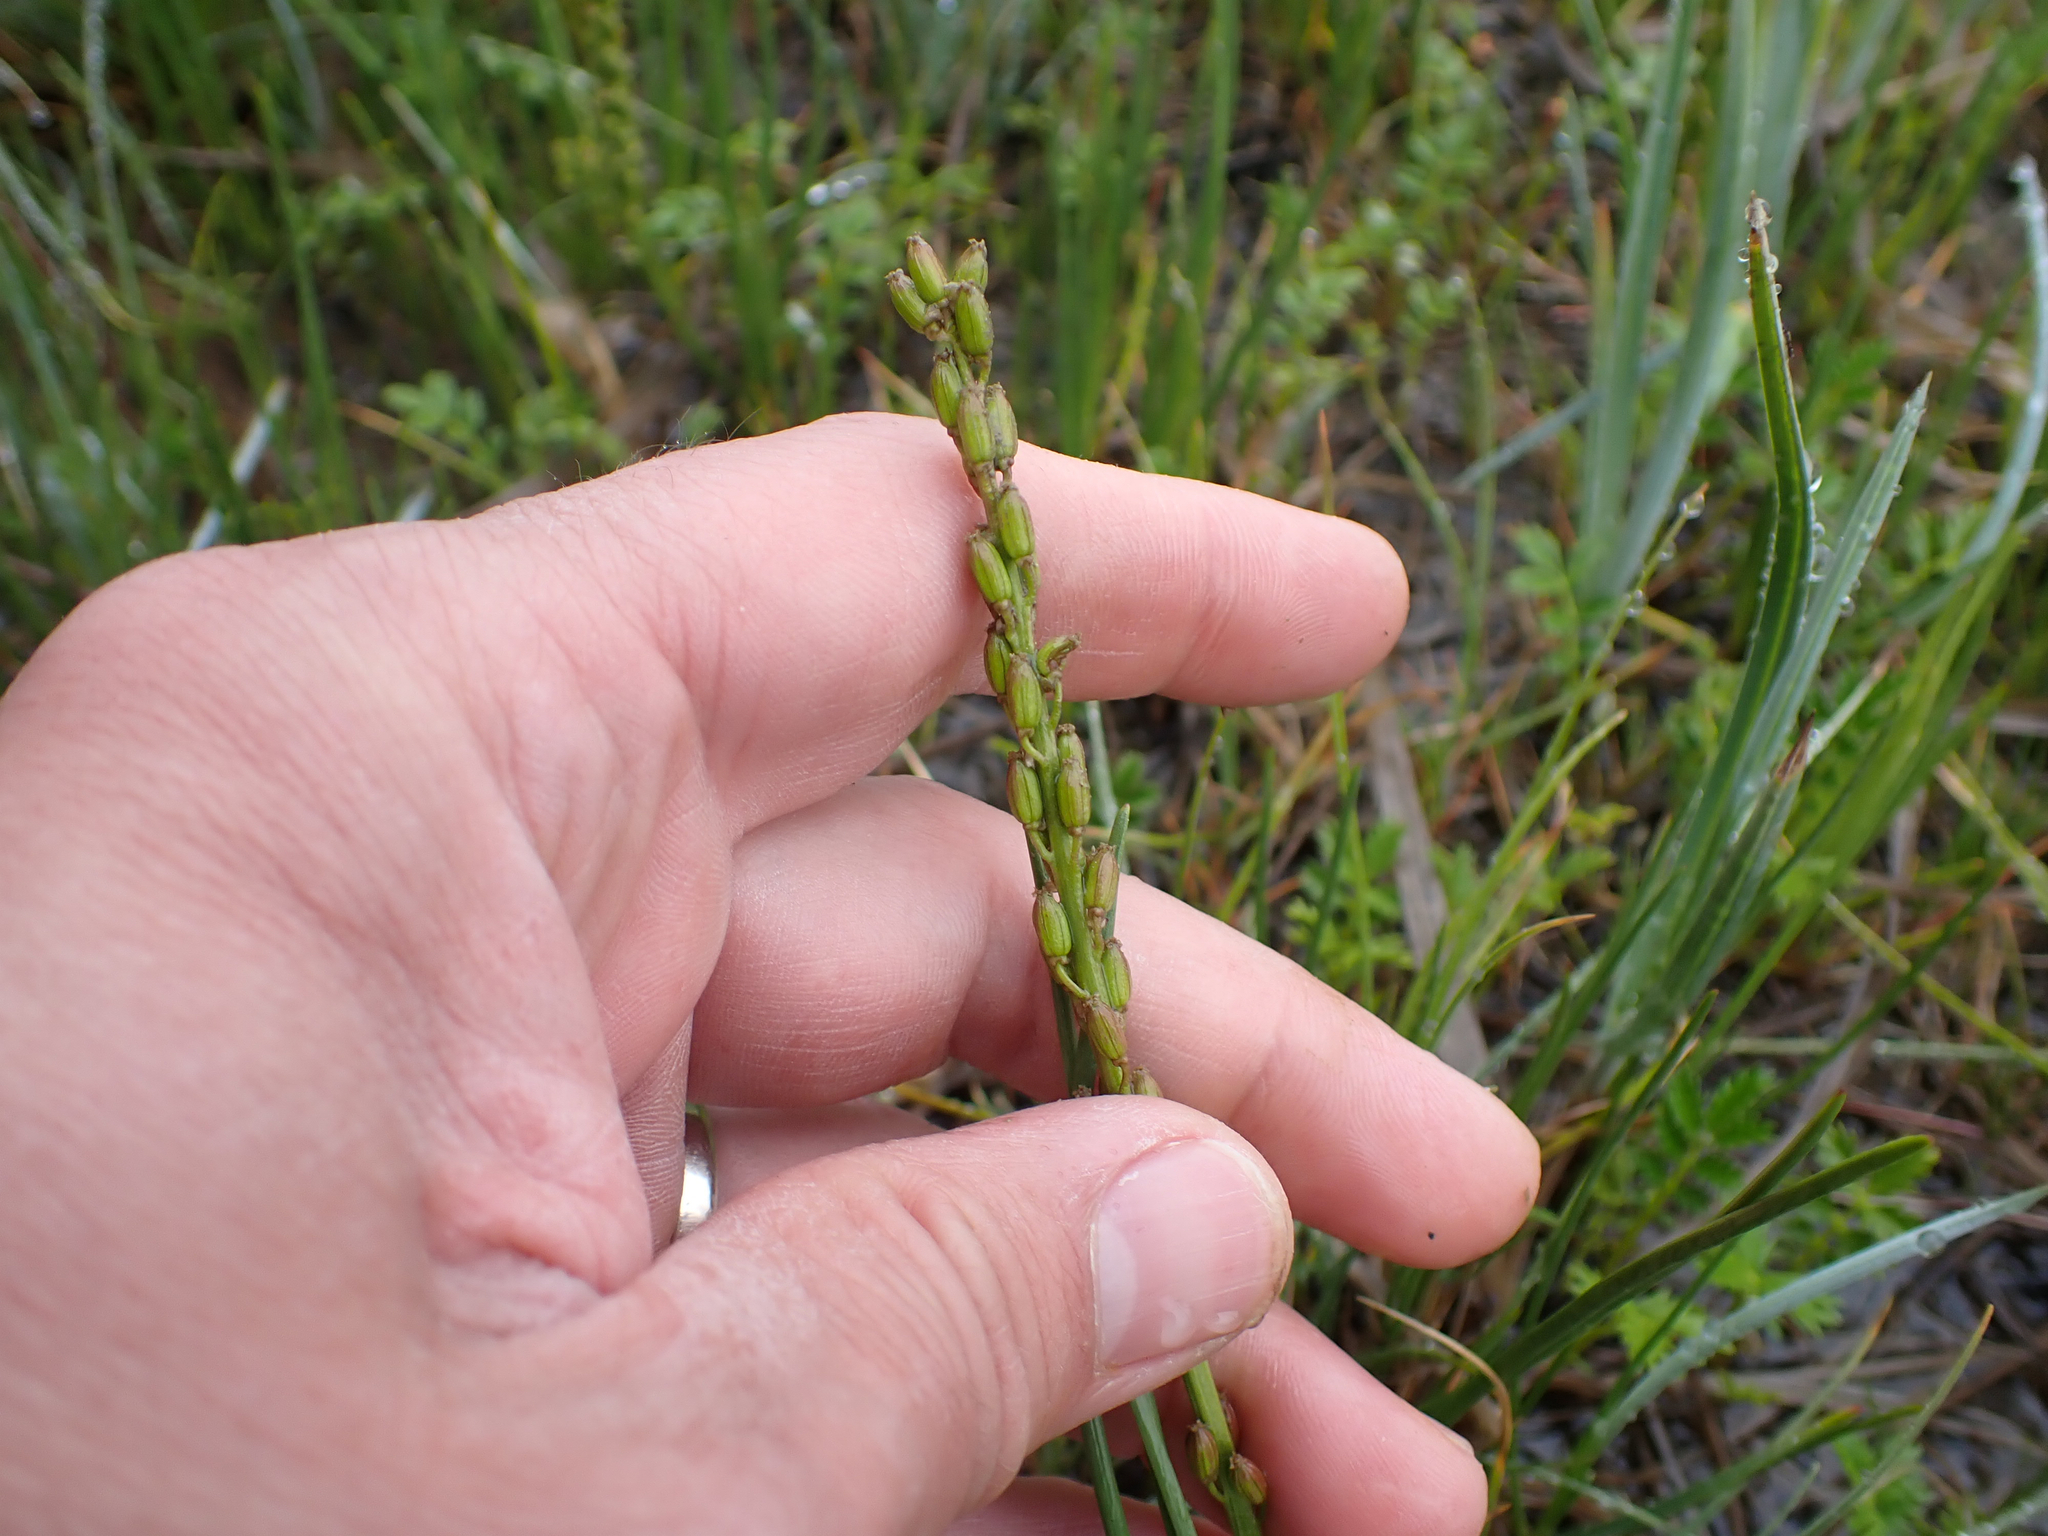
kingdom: Plantae
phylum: Tracheophyta
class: Liliopsida
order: Alismatales
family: Juncaginaceae
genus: Triglochin
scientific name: Triglochin maritima
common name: Sea arrowgrass
